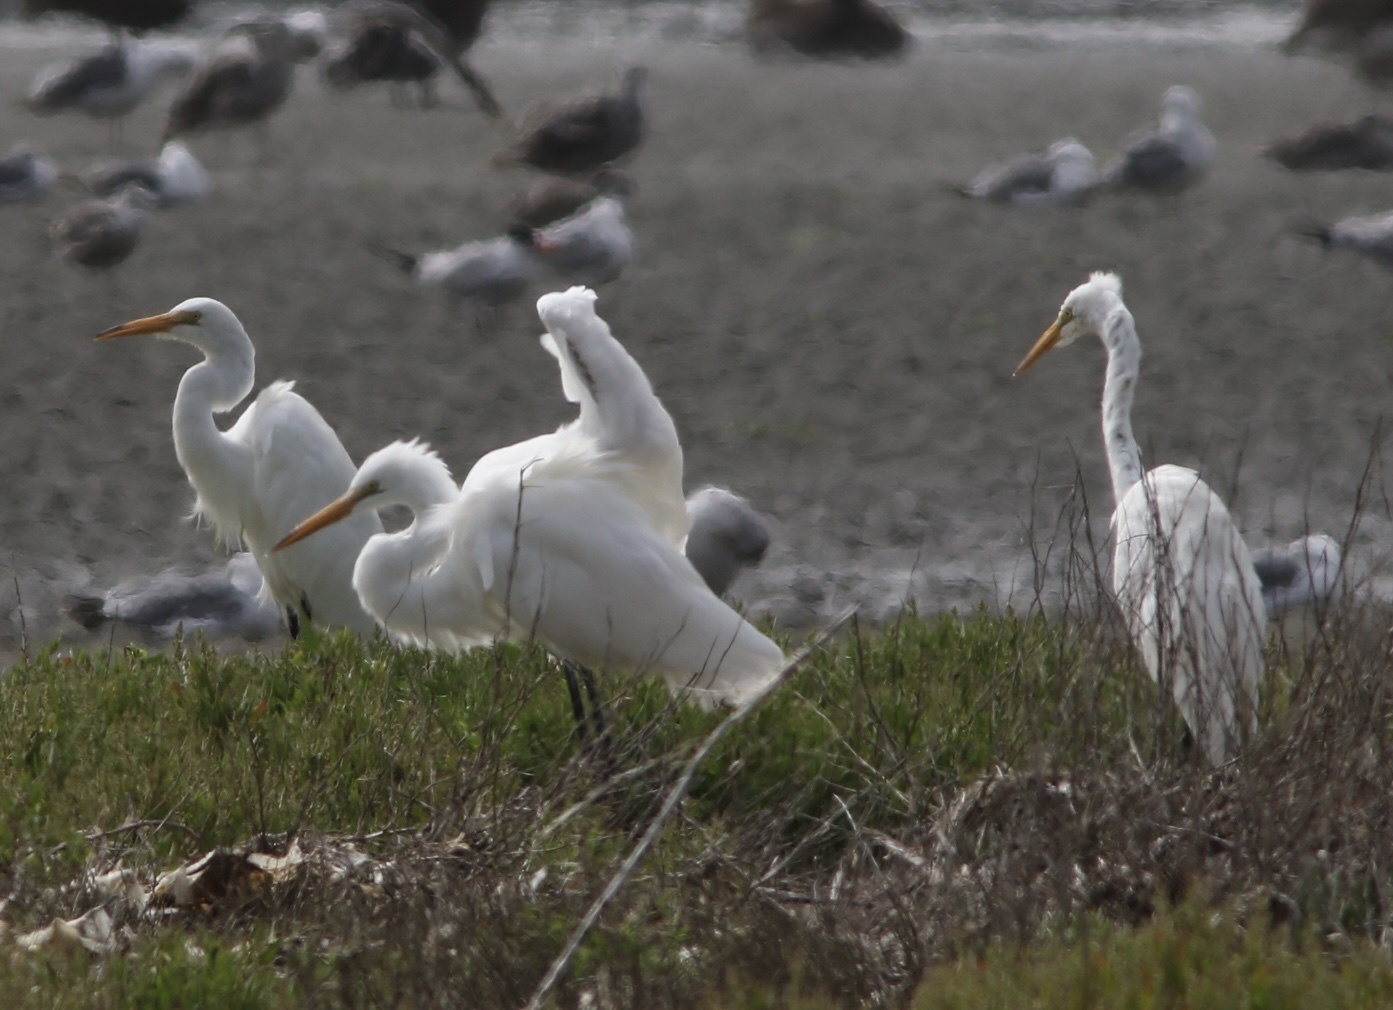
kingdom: Animalia
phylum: Chordata
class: Aves
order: Pelecaniformes
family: Ardeidae
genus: Ardea
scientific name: Ardea alba
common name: Great egret
